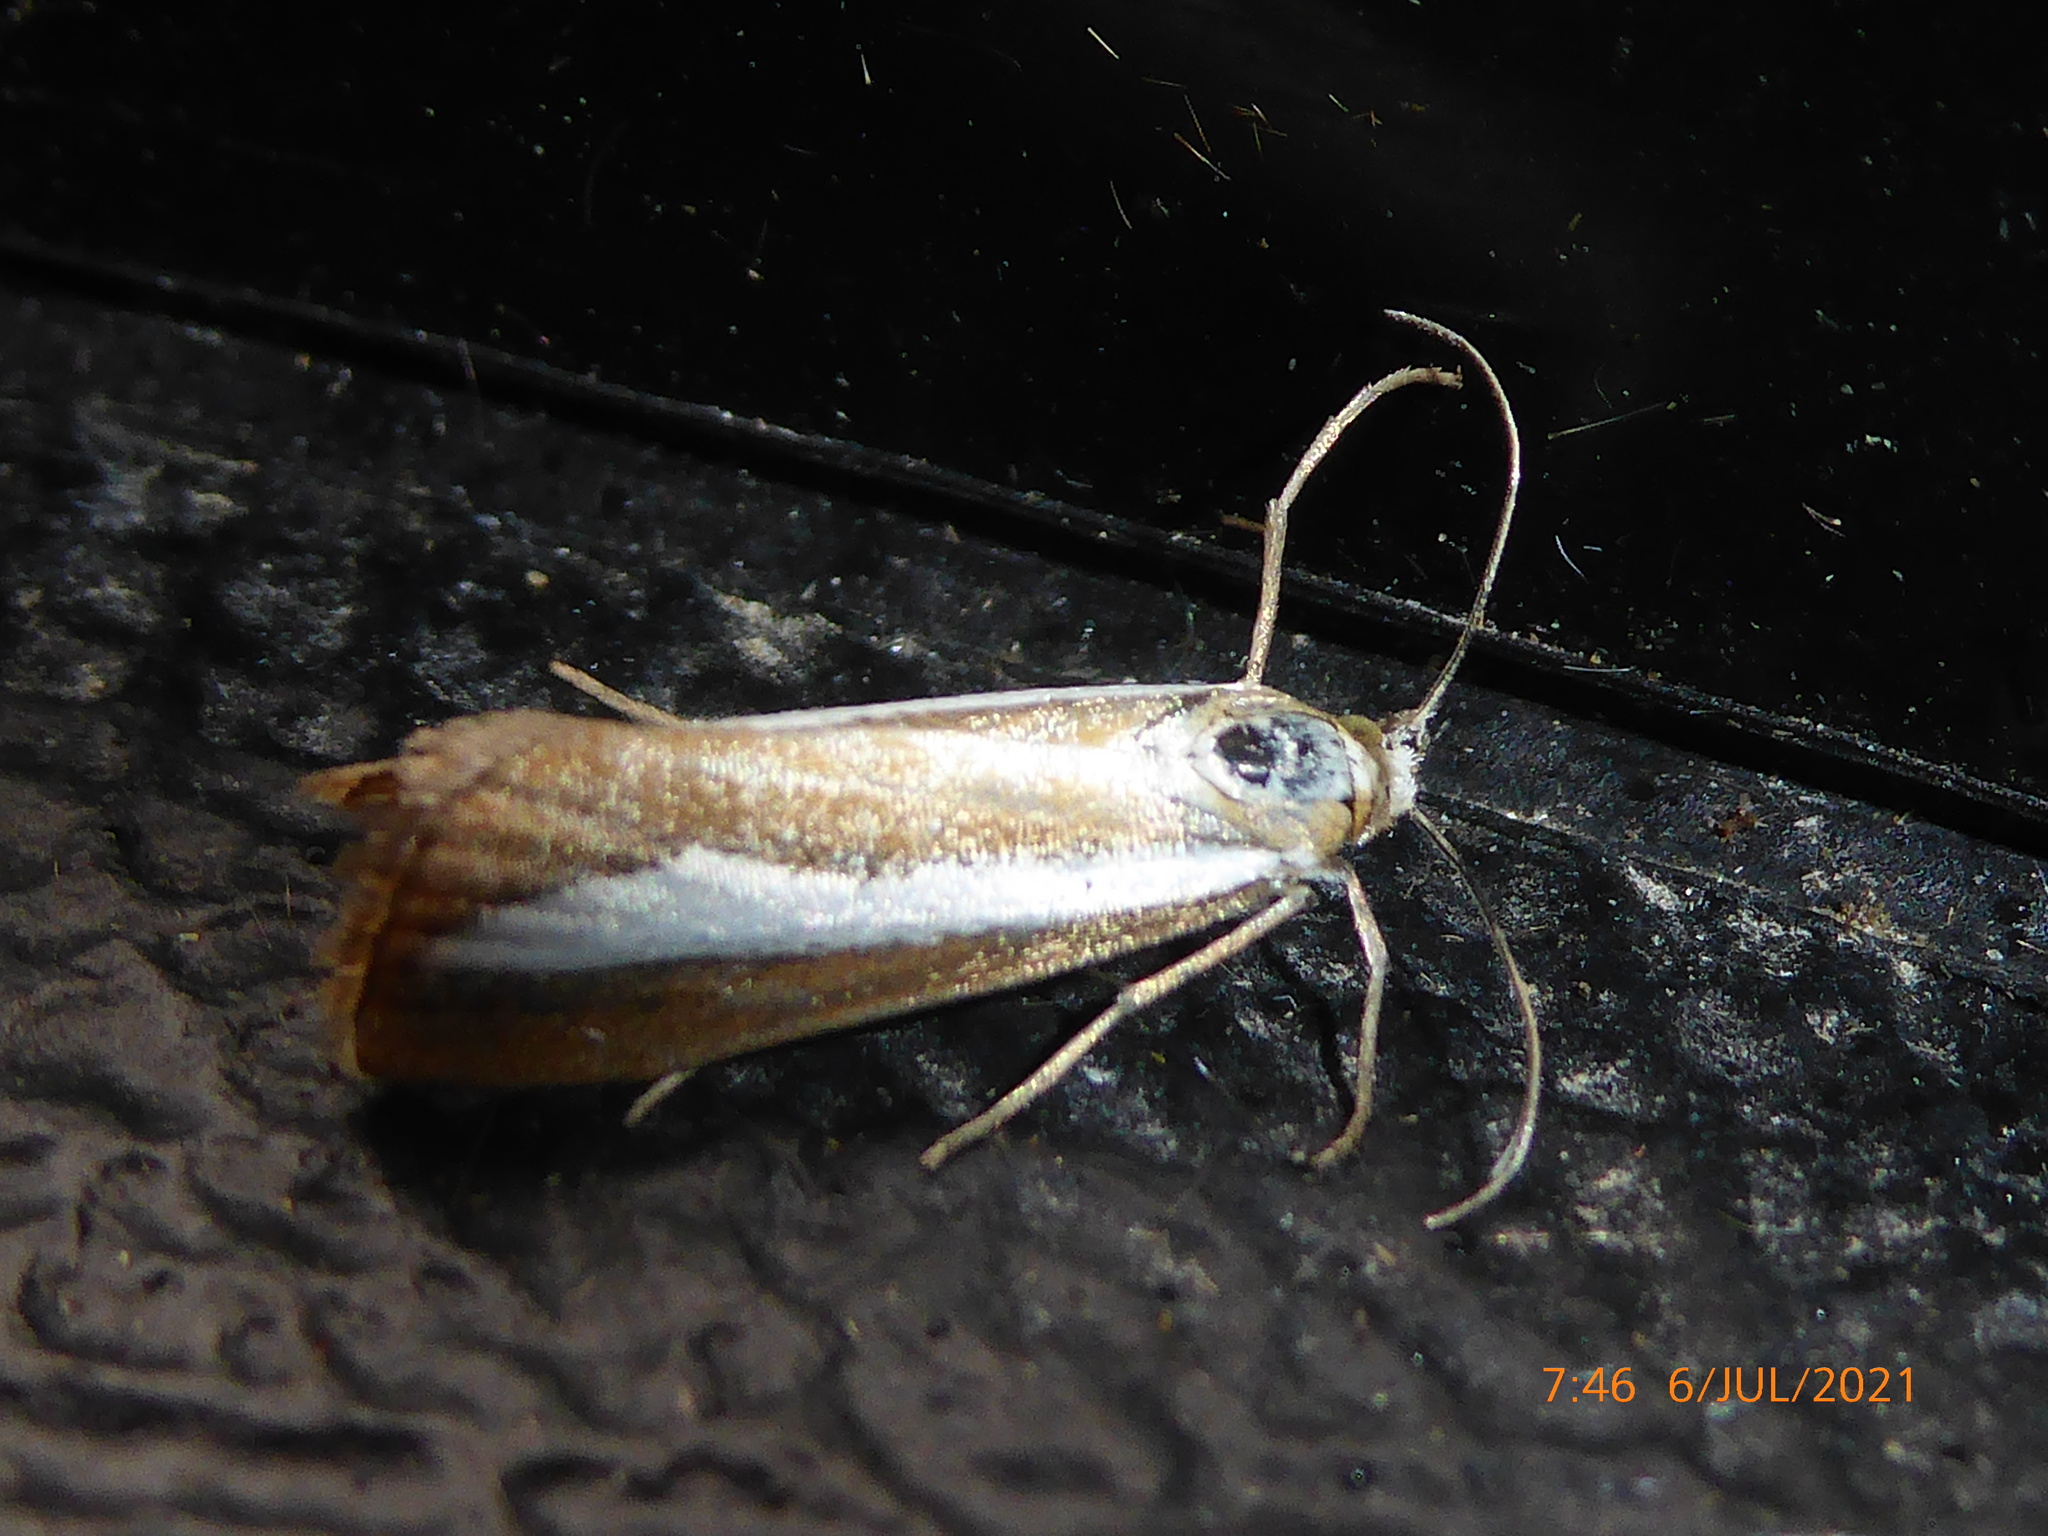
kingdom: Animalia
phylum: Arthropoda
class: Insecta
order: Lepidoptera
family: Crambidae
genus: Catoptria
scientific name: Catoptria margaritellus
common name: Pearl-band grass veneer
